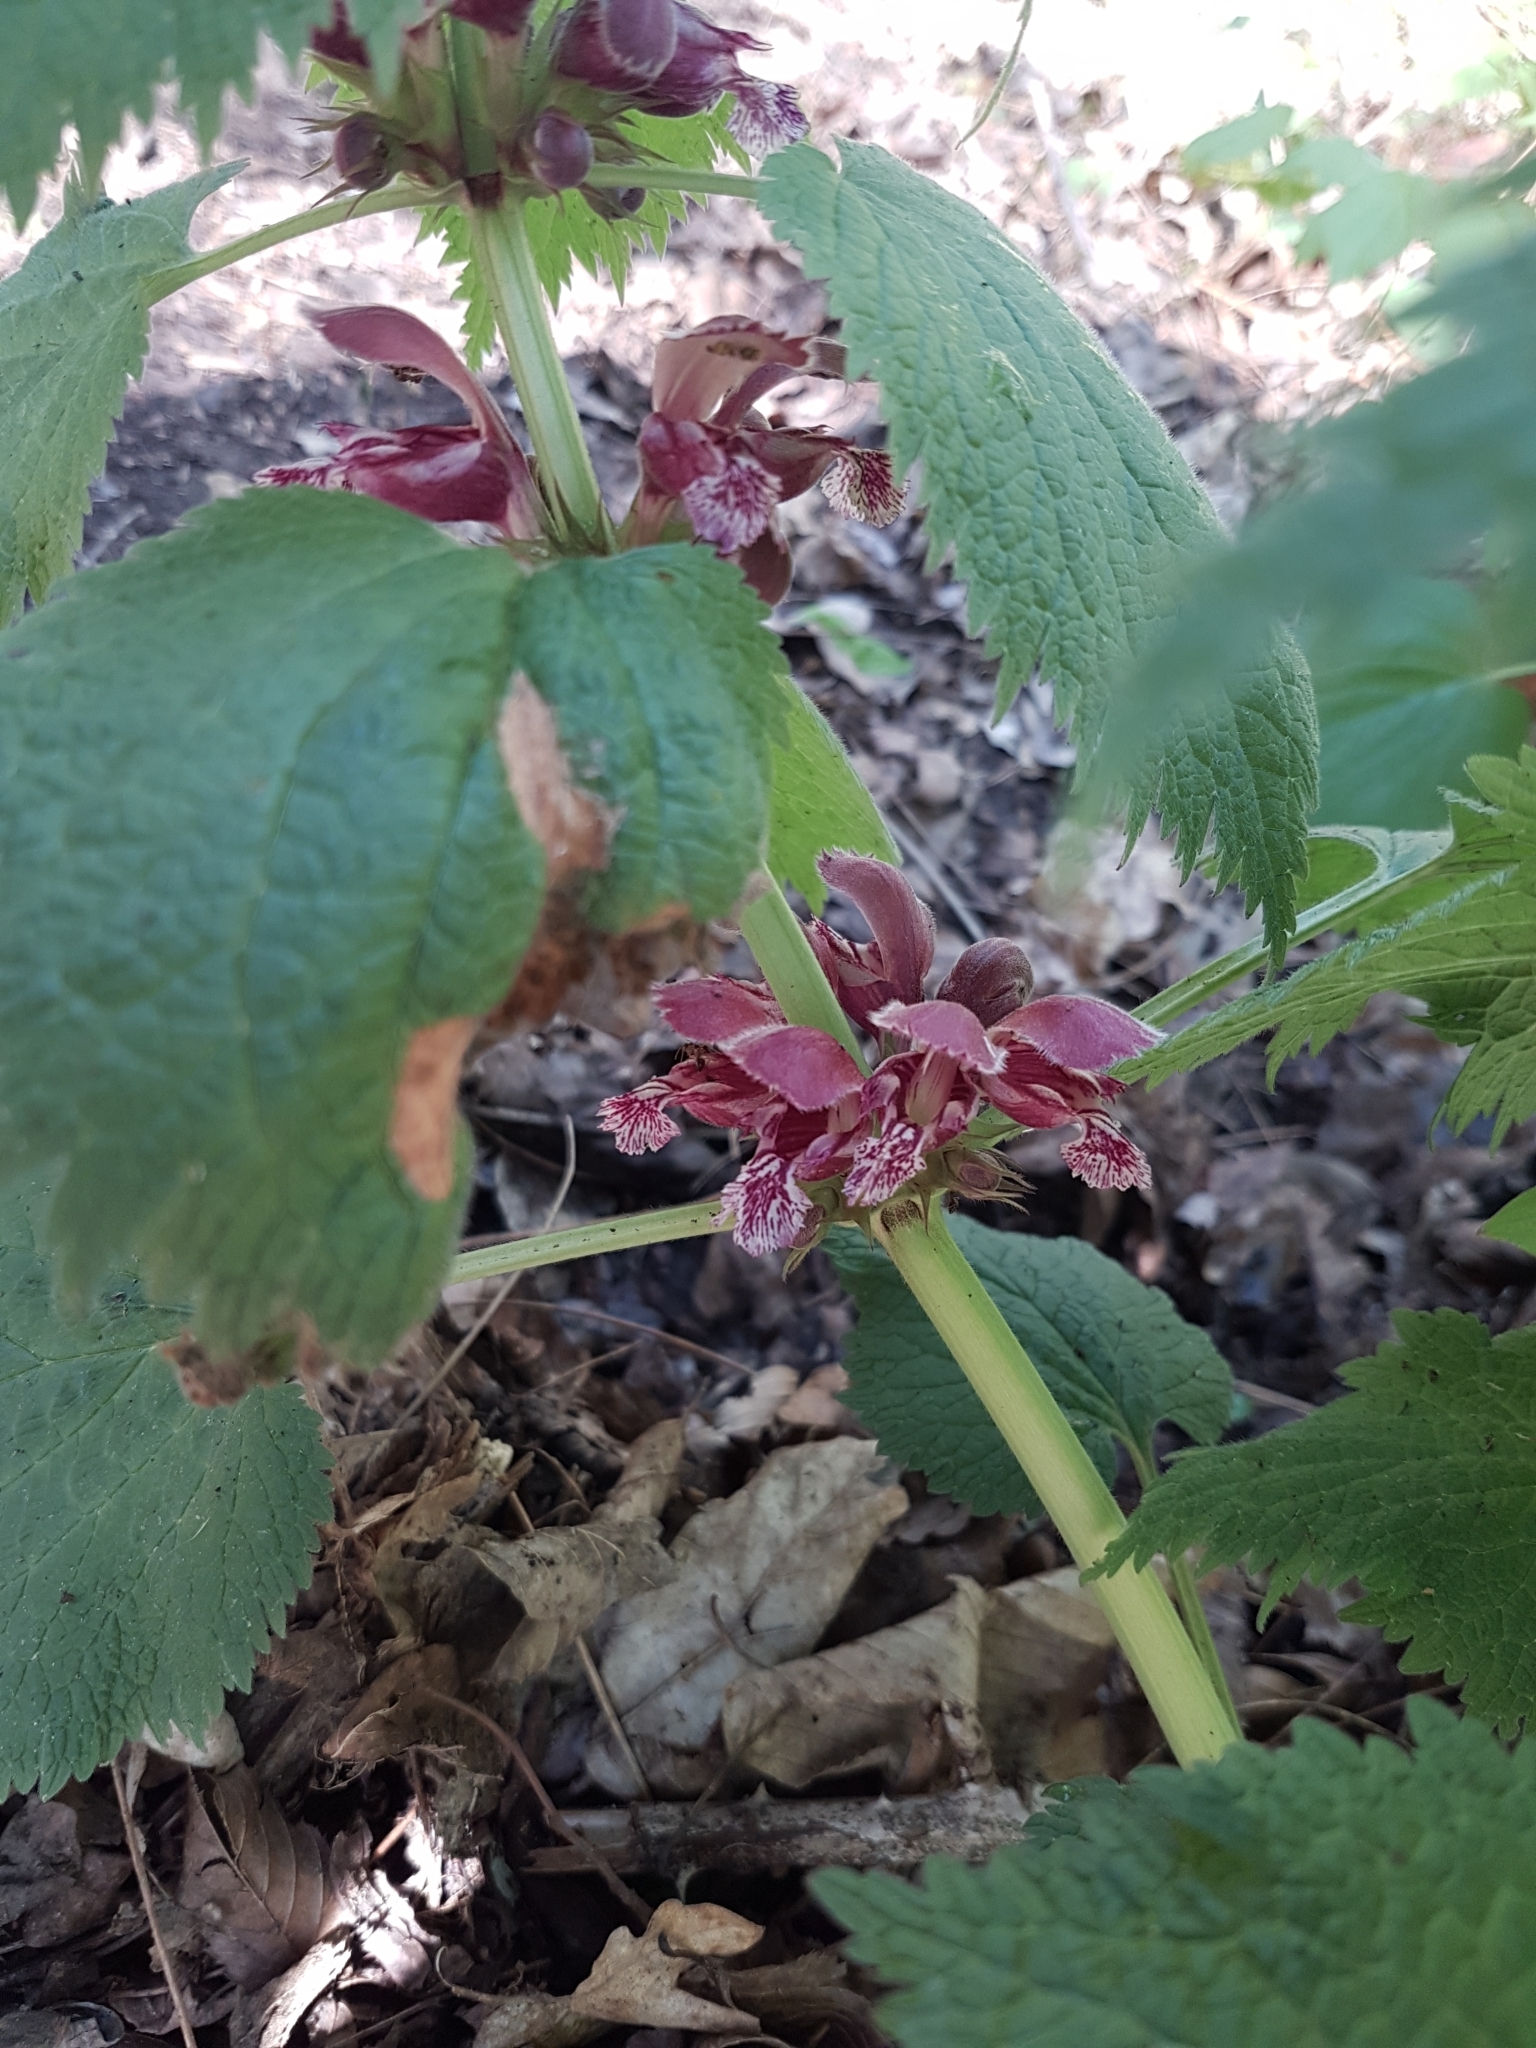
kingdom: Plantae
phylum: Tracheophyta
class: Magnoliopsida
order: Lamiales
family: Lamiaceae
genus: Lamium
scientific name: Lamium orvala
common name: Balm-leaved archangel
